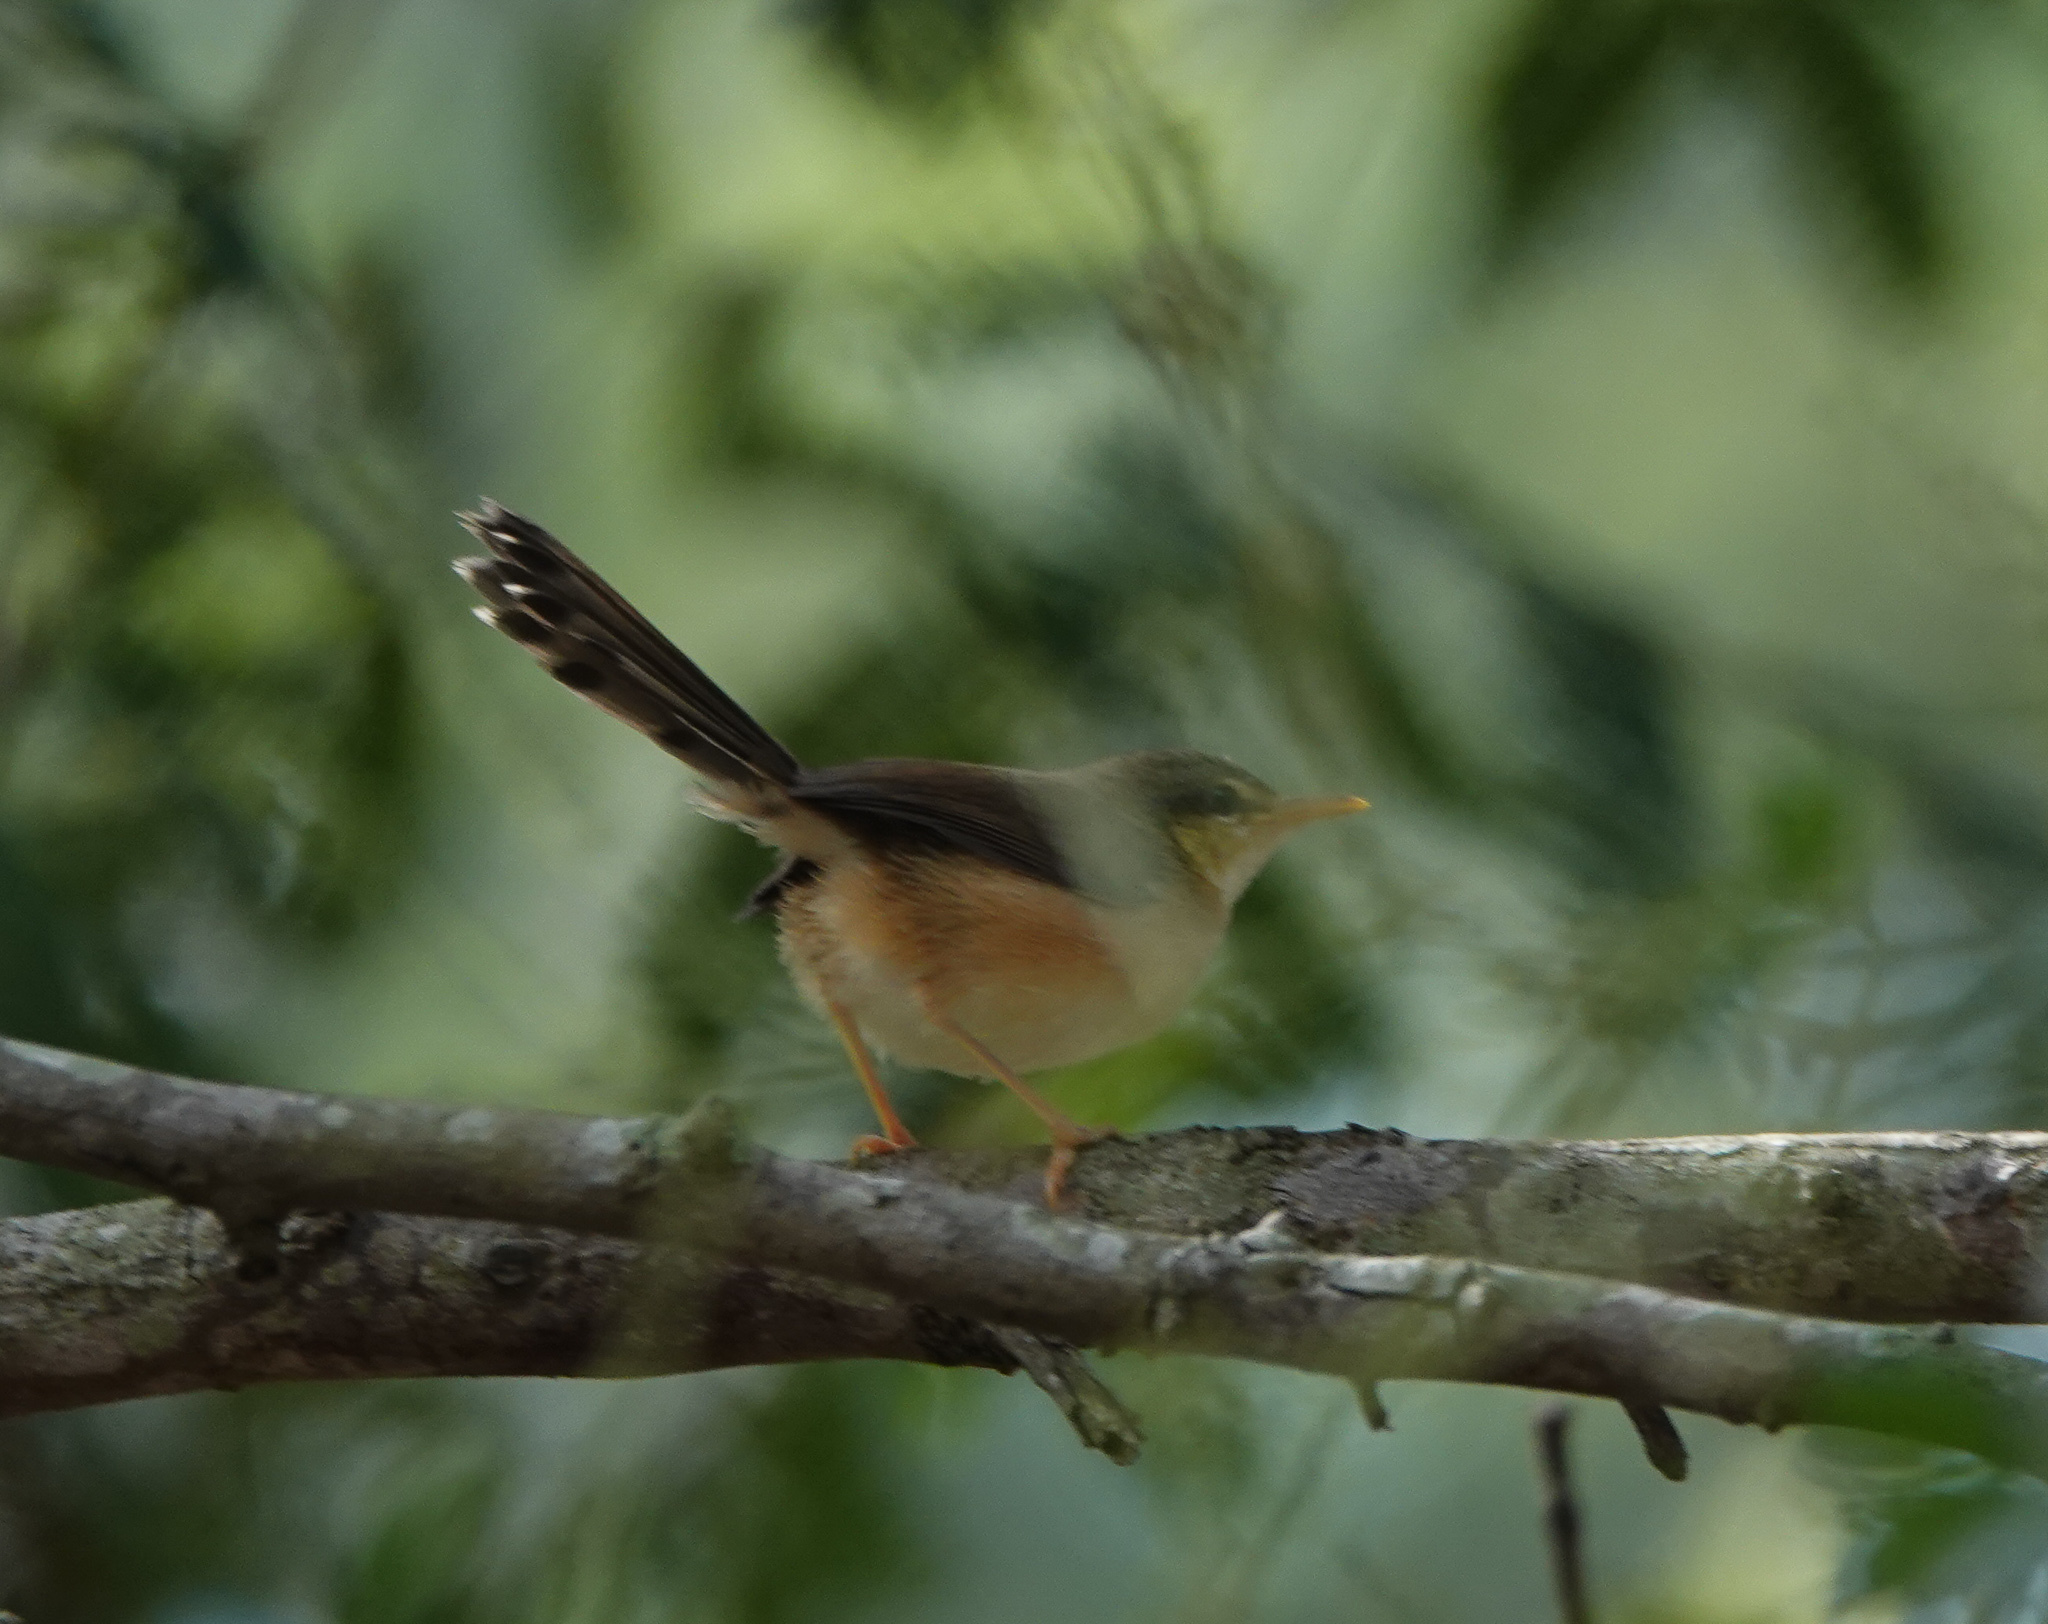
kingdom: Animalia
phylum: Chordata
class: Aves
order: Passeriformes
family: Cisticolidae
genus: Prinia
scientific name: Prinia socialis
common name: Ashy prinia
